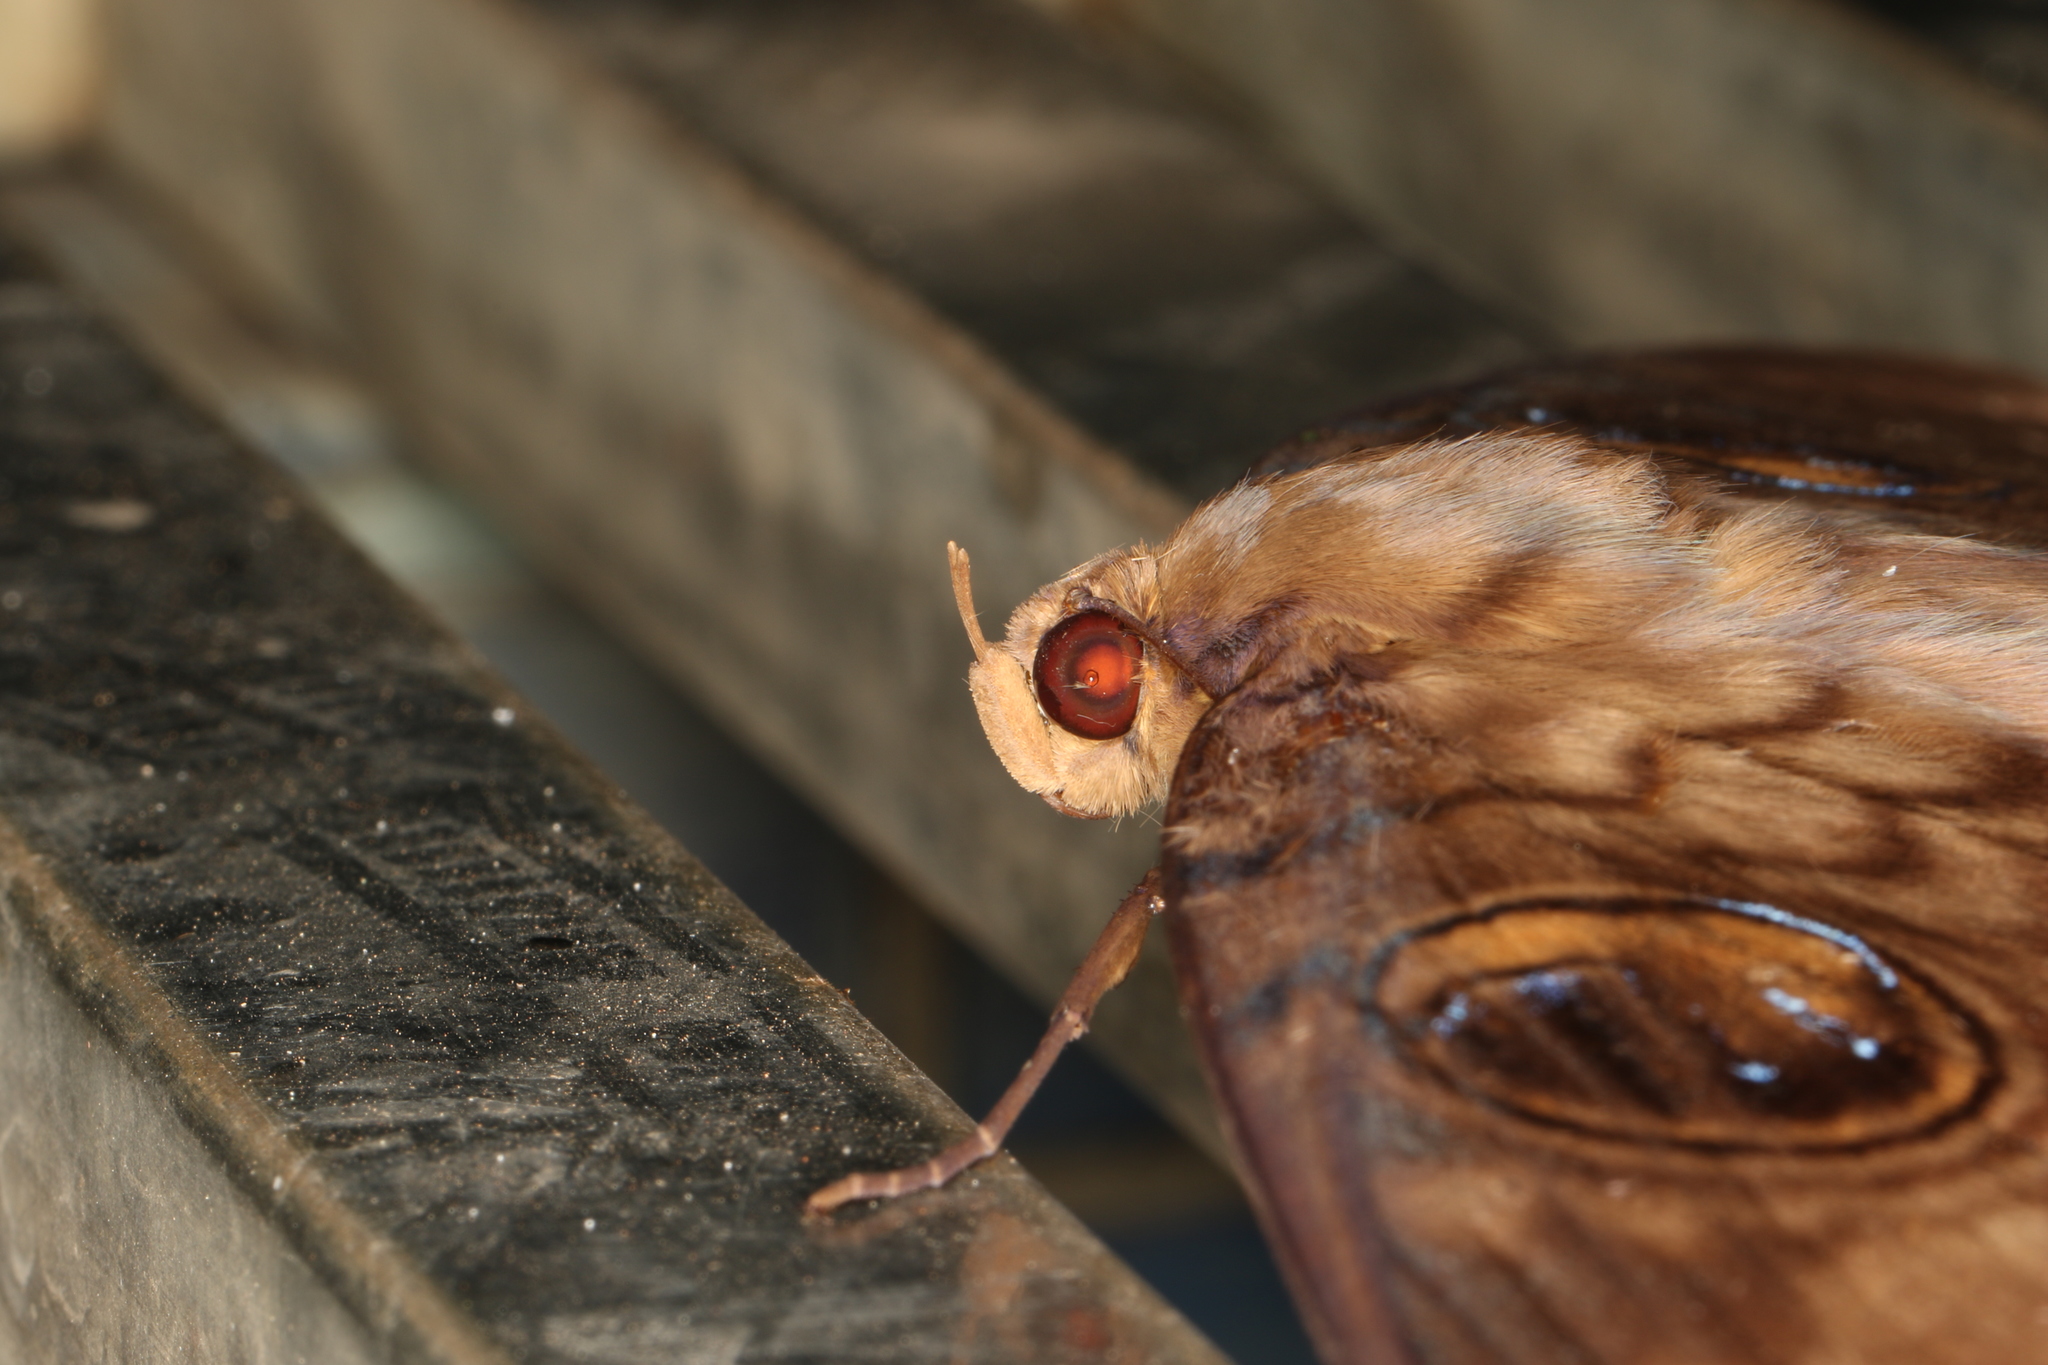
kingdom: Animalia
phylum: Arthropoda
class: Insecta
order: Lepidoptera
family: Erebidae
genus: Erebus
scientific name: Erebus walkeri
